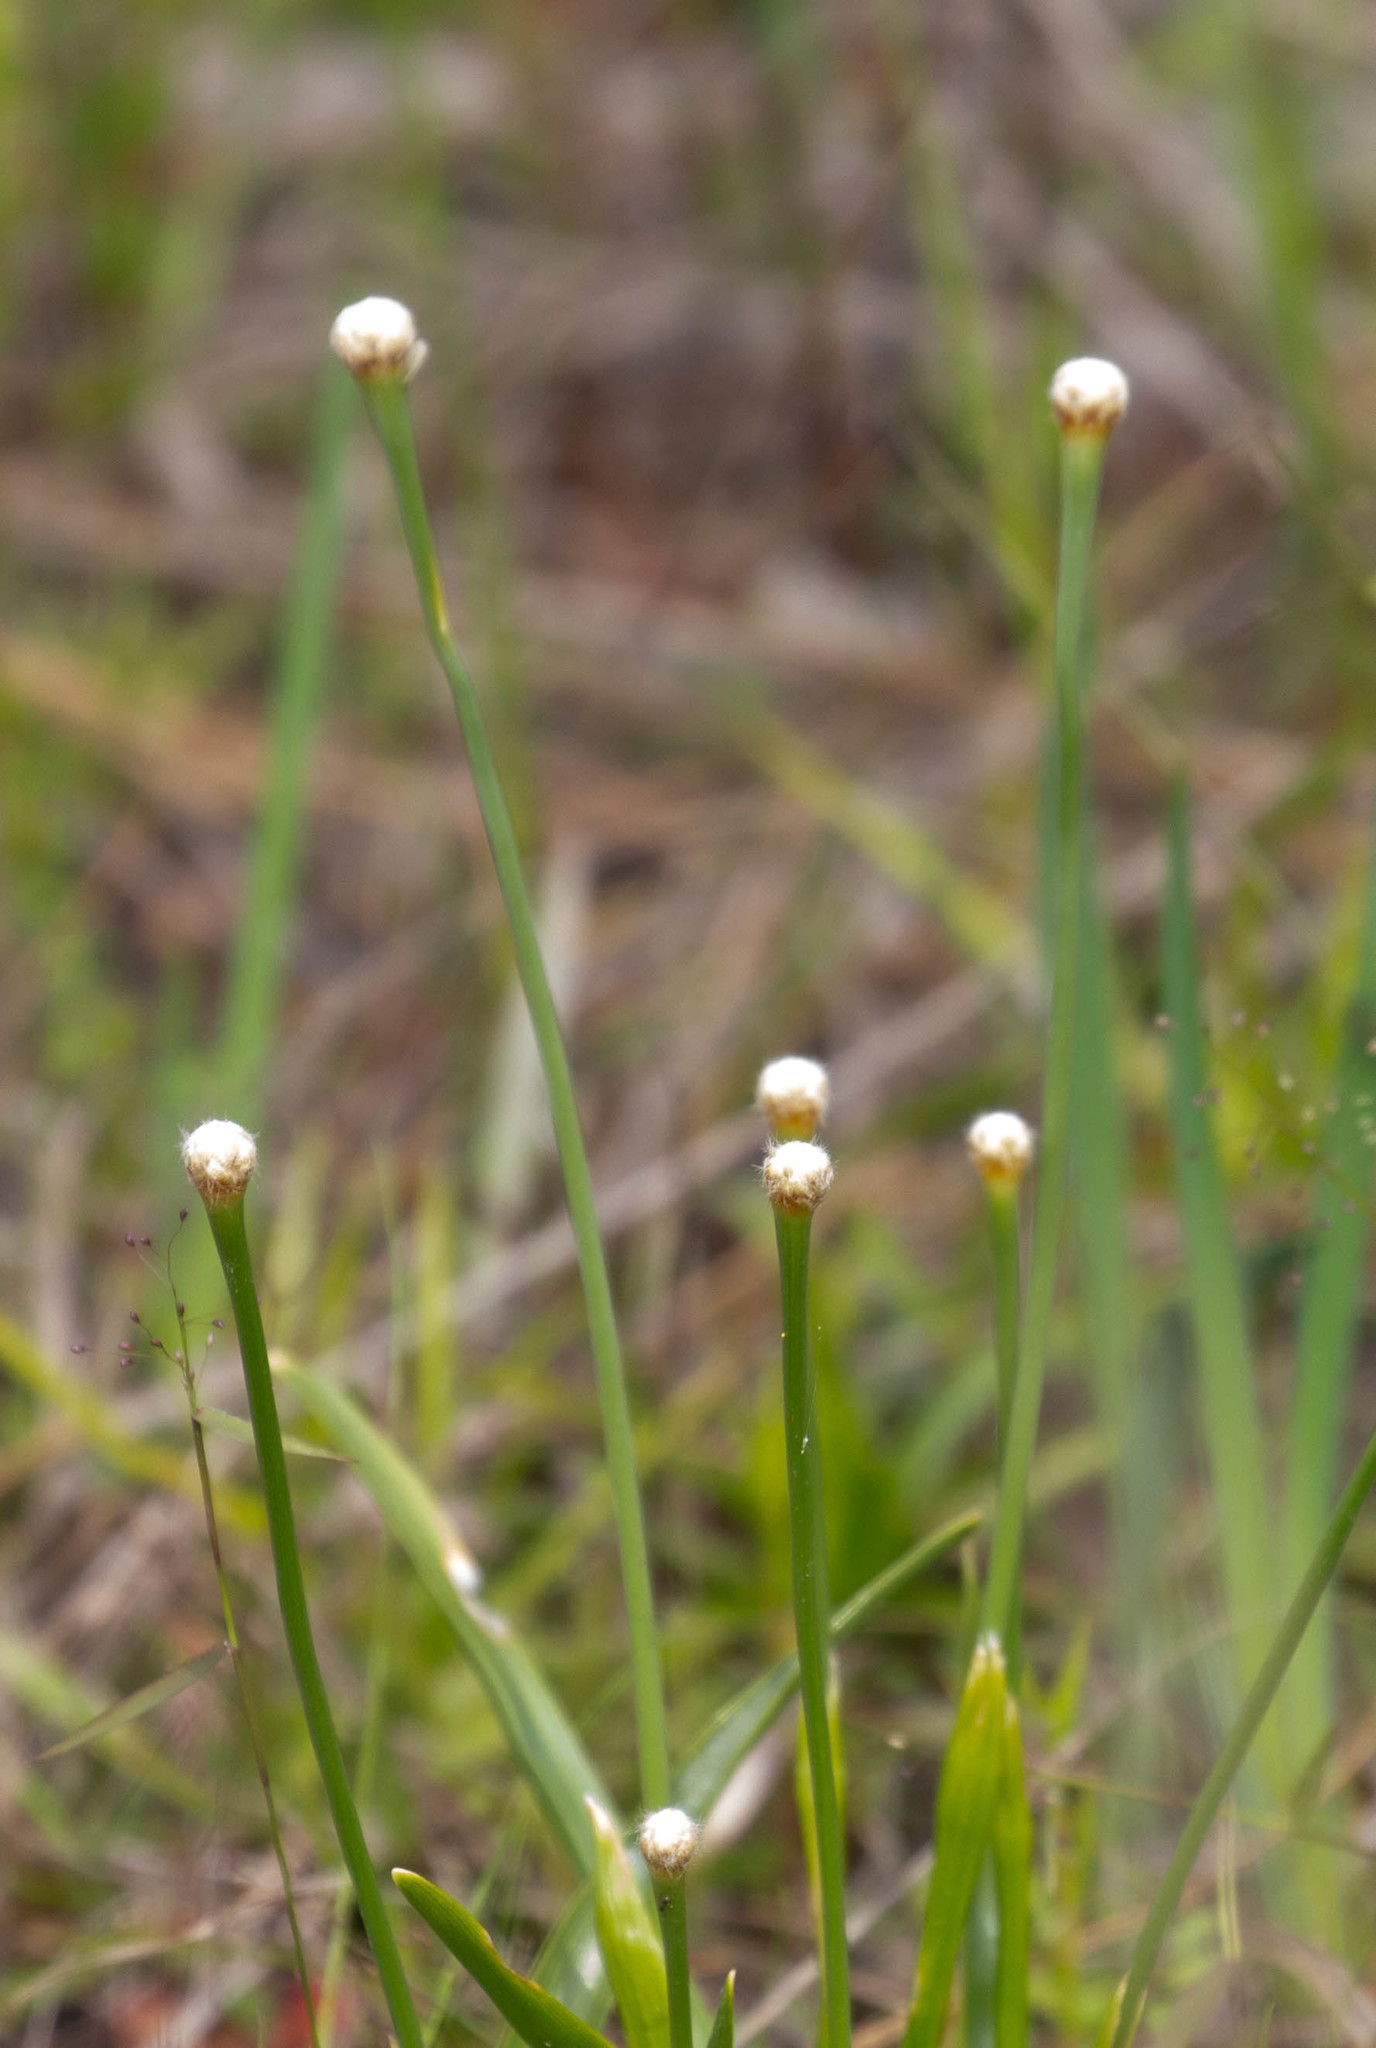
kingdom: Plantae
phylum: Tracheophyta
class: Liliopsida
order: Poales
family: Eriocaulaceae
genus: Eriocaulon
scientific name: Eriocaulon decangulare
